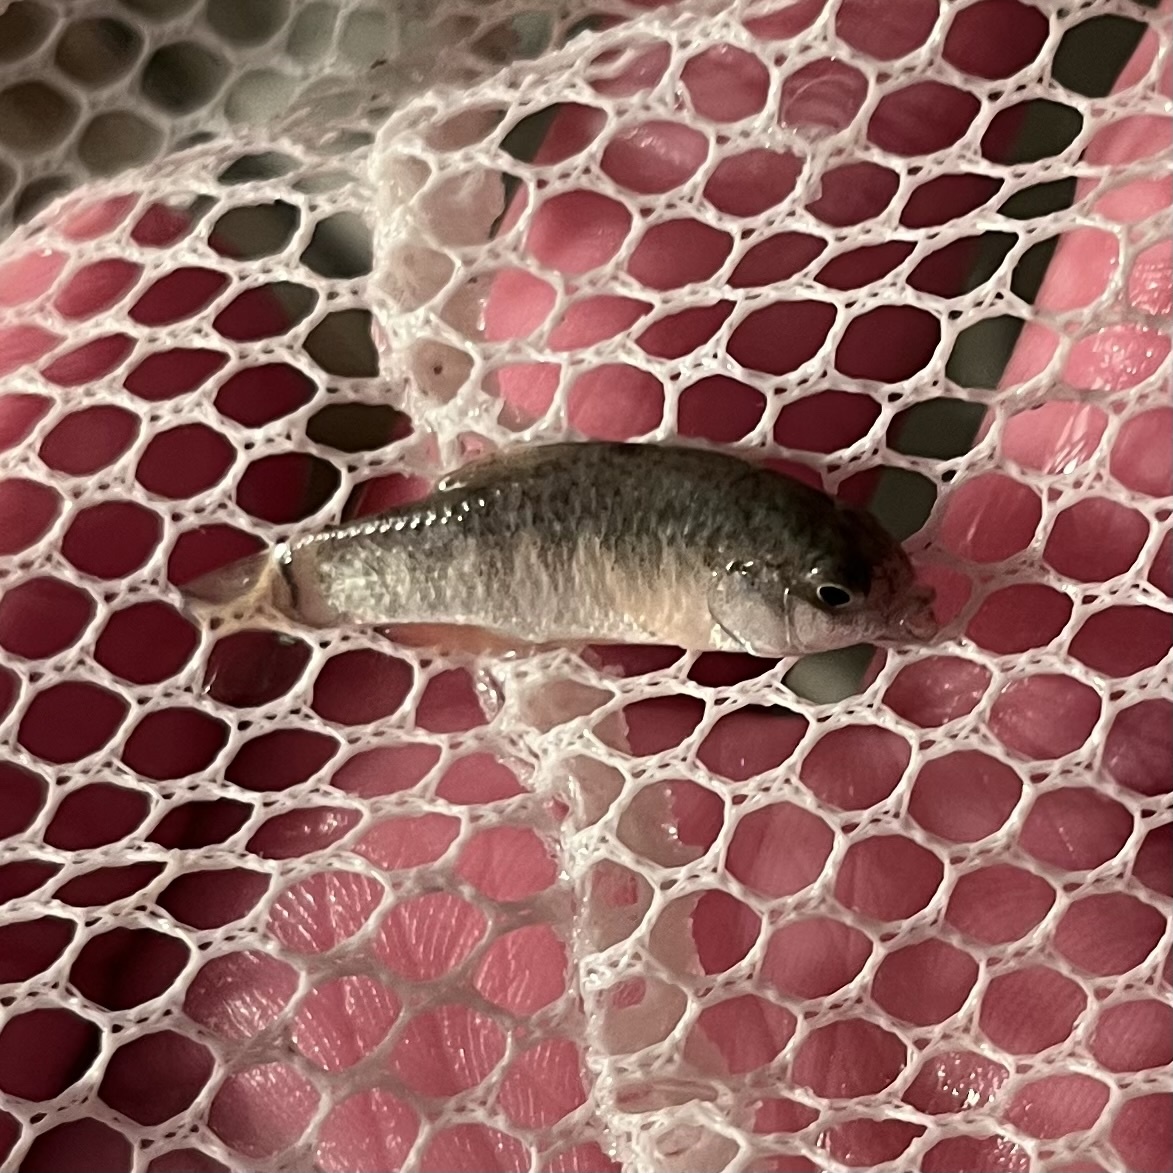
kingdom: Animalia
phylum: Chordata
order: Cyprinodontiformes
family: Cyprinodontidae
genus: Cyprinodon
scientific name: Cyprinodon variegatus
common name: Sheepshead minnow
